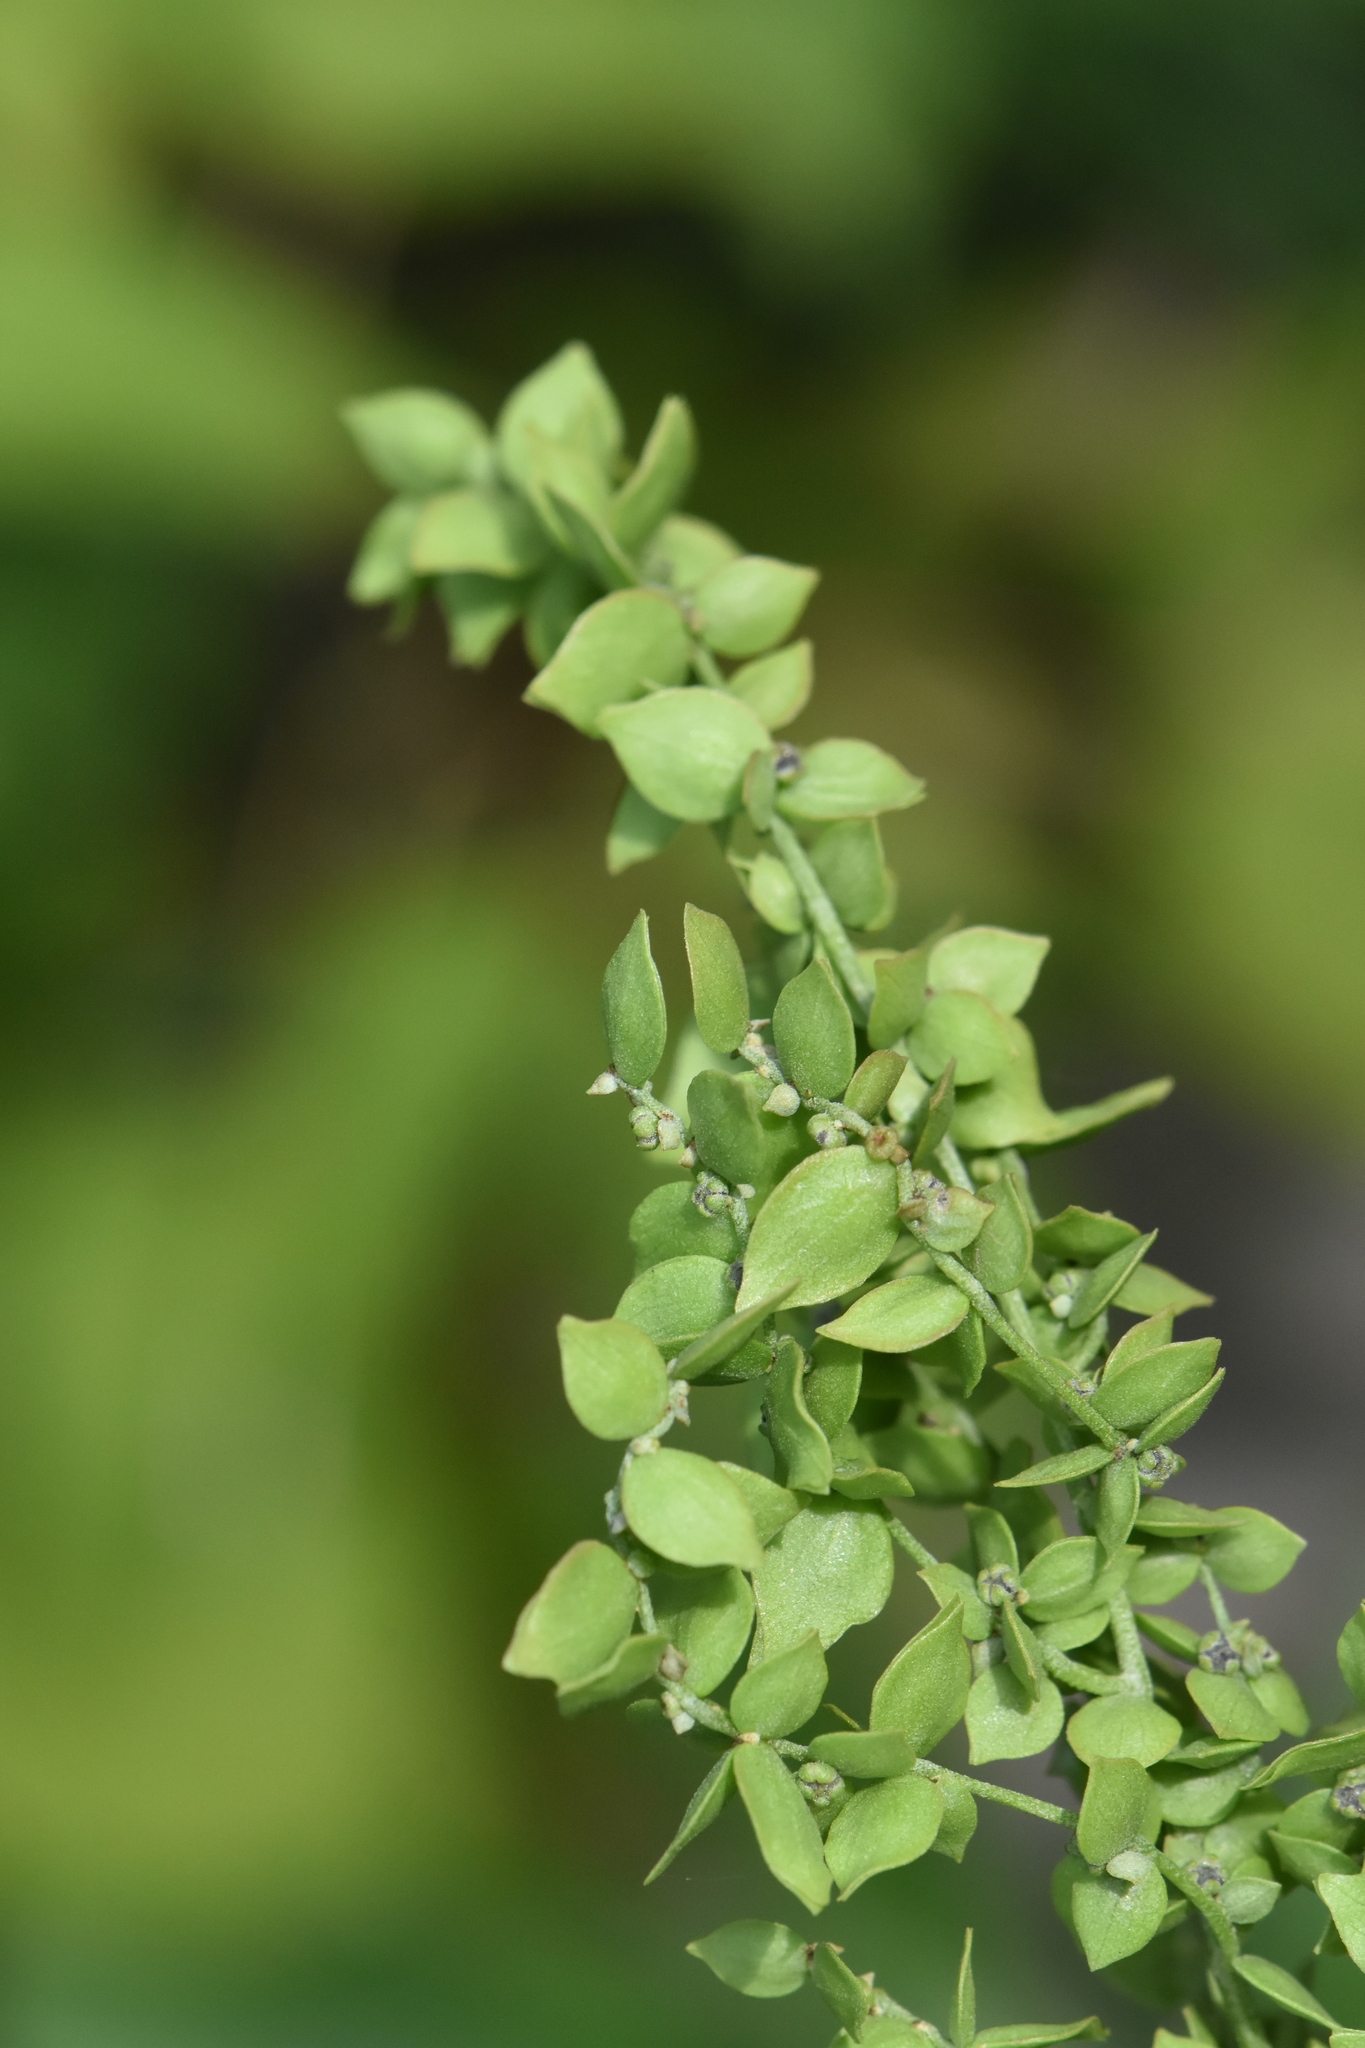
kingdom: Plantae
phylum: Tracheophyta
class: Magnoliopsida
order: Caryophyllales
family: Amaranthaceae
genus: Atriplex
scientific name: Atriplex sagittata
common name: Purple orache
